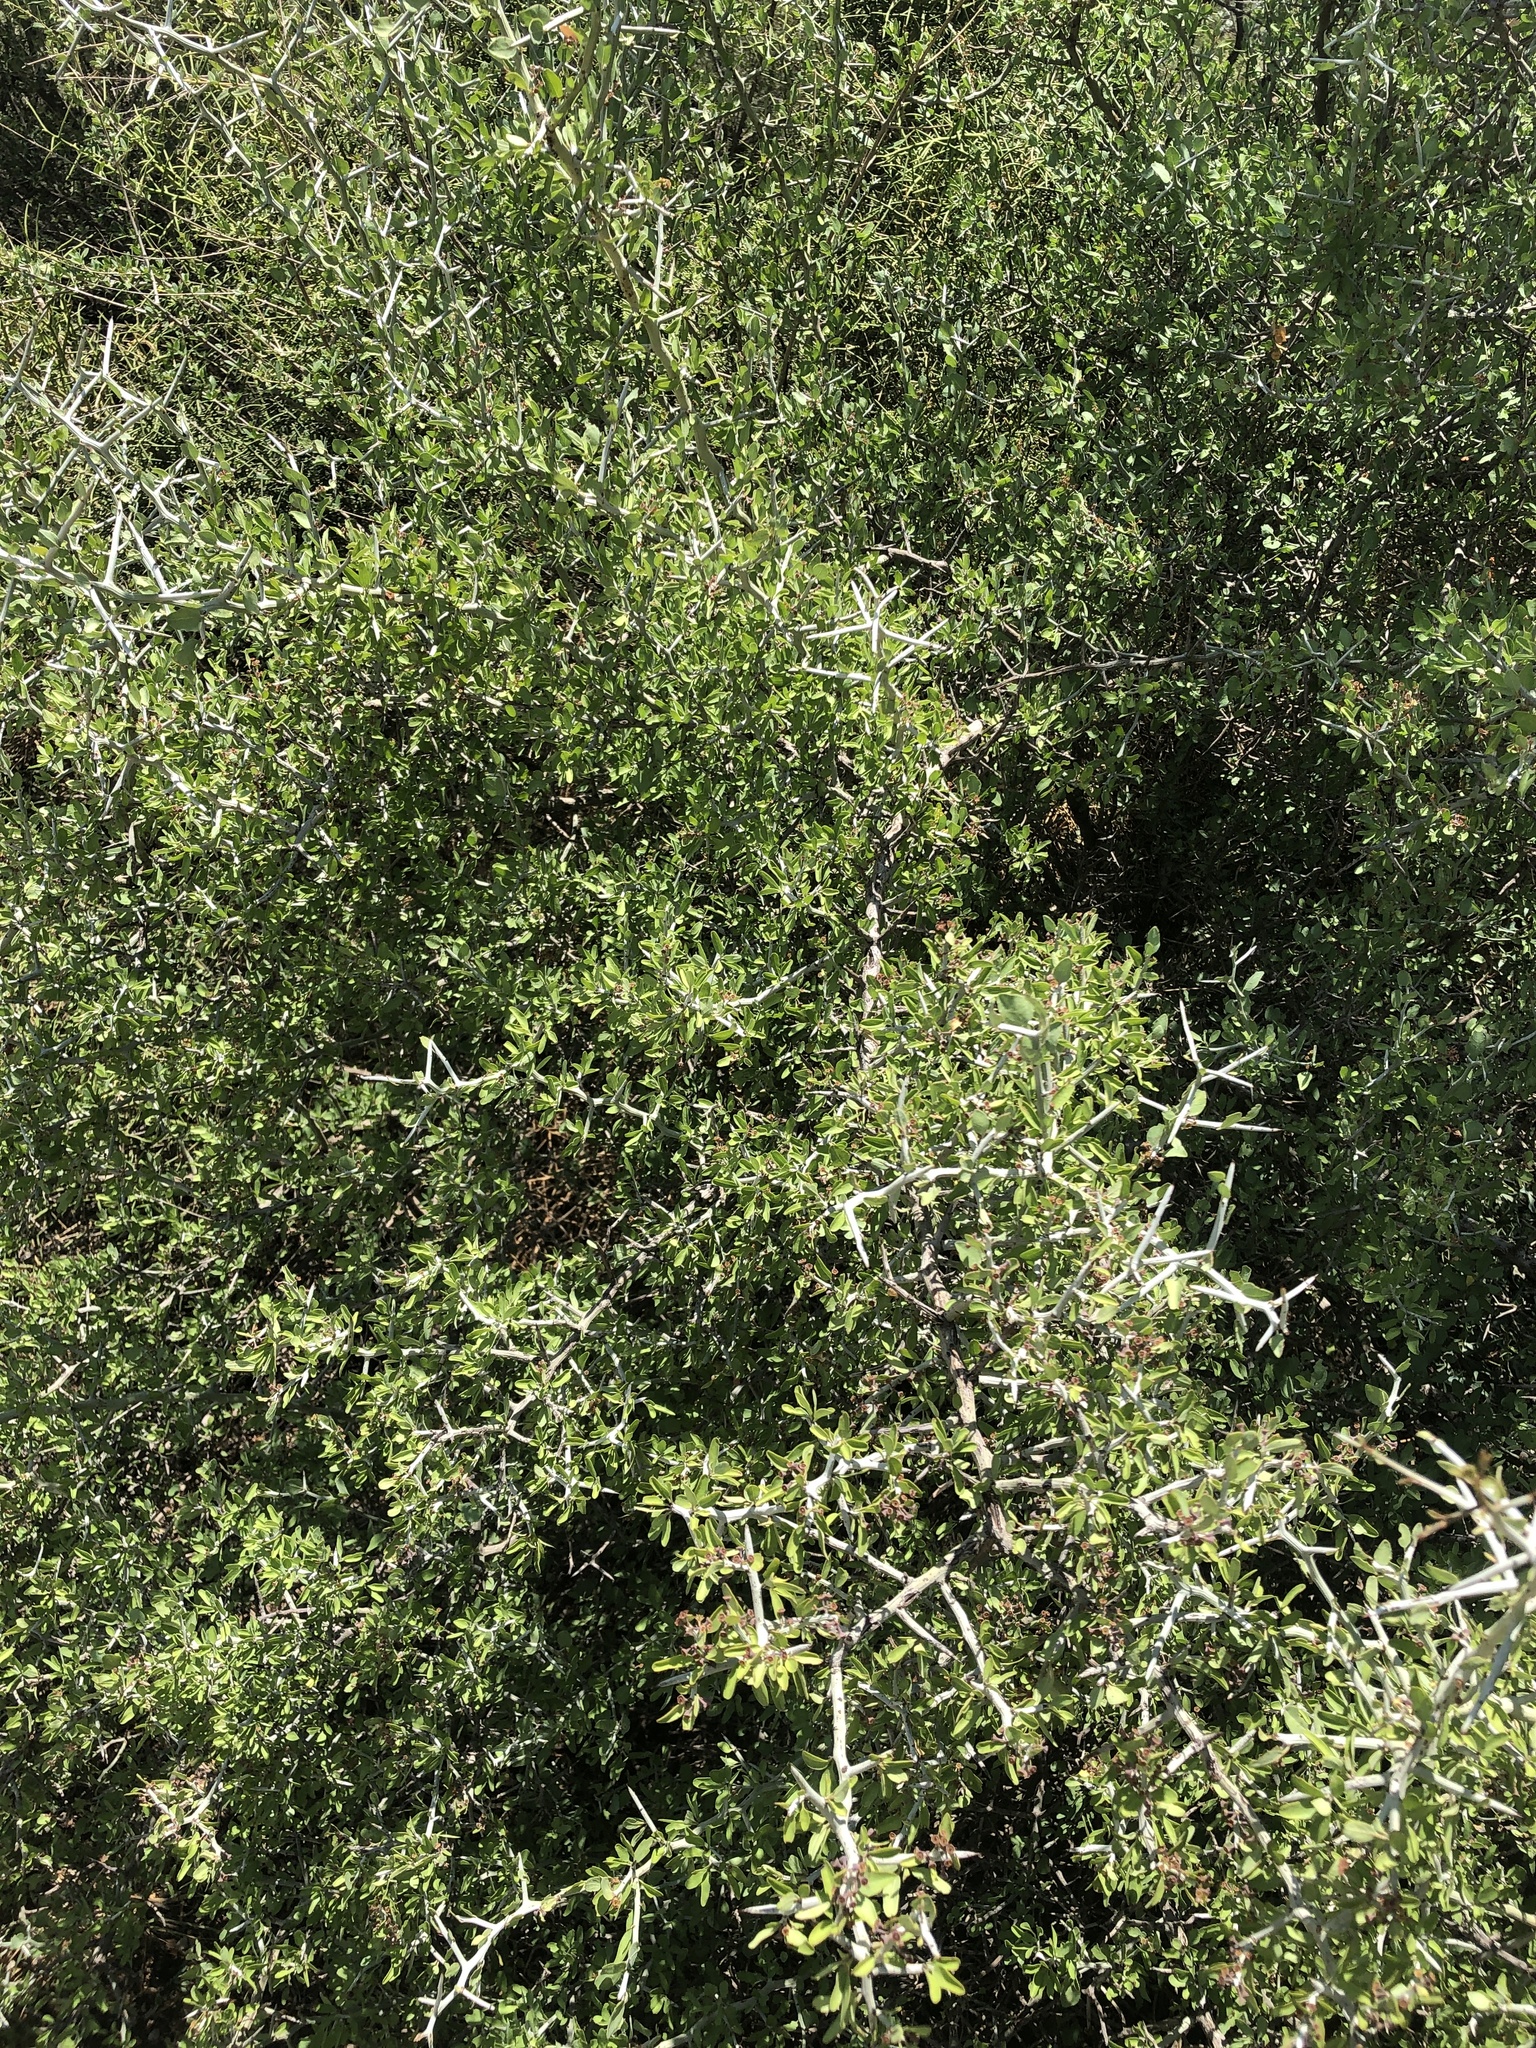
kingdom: Plantae
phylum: Tracheophyta
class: Magnoliopsida
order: Rosales
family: Rhamnaceae
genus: Sarcomphalus
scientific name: Sarcomphalus obtusifolius
